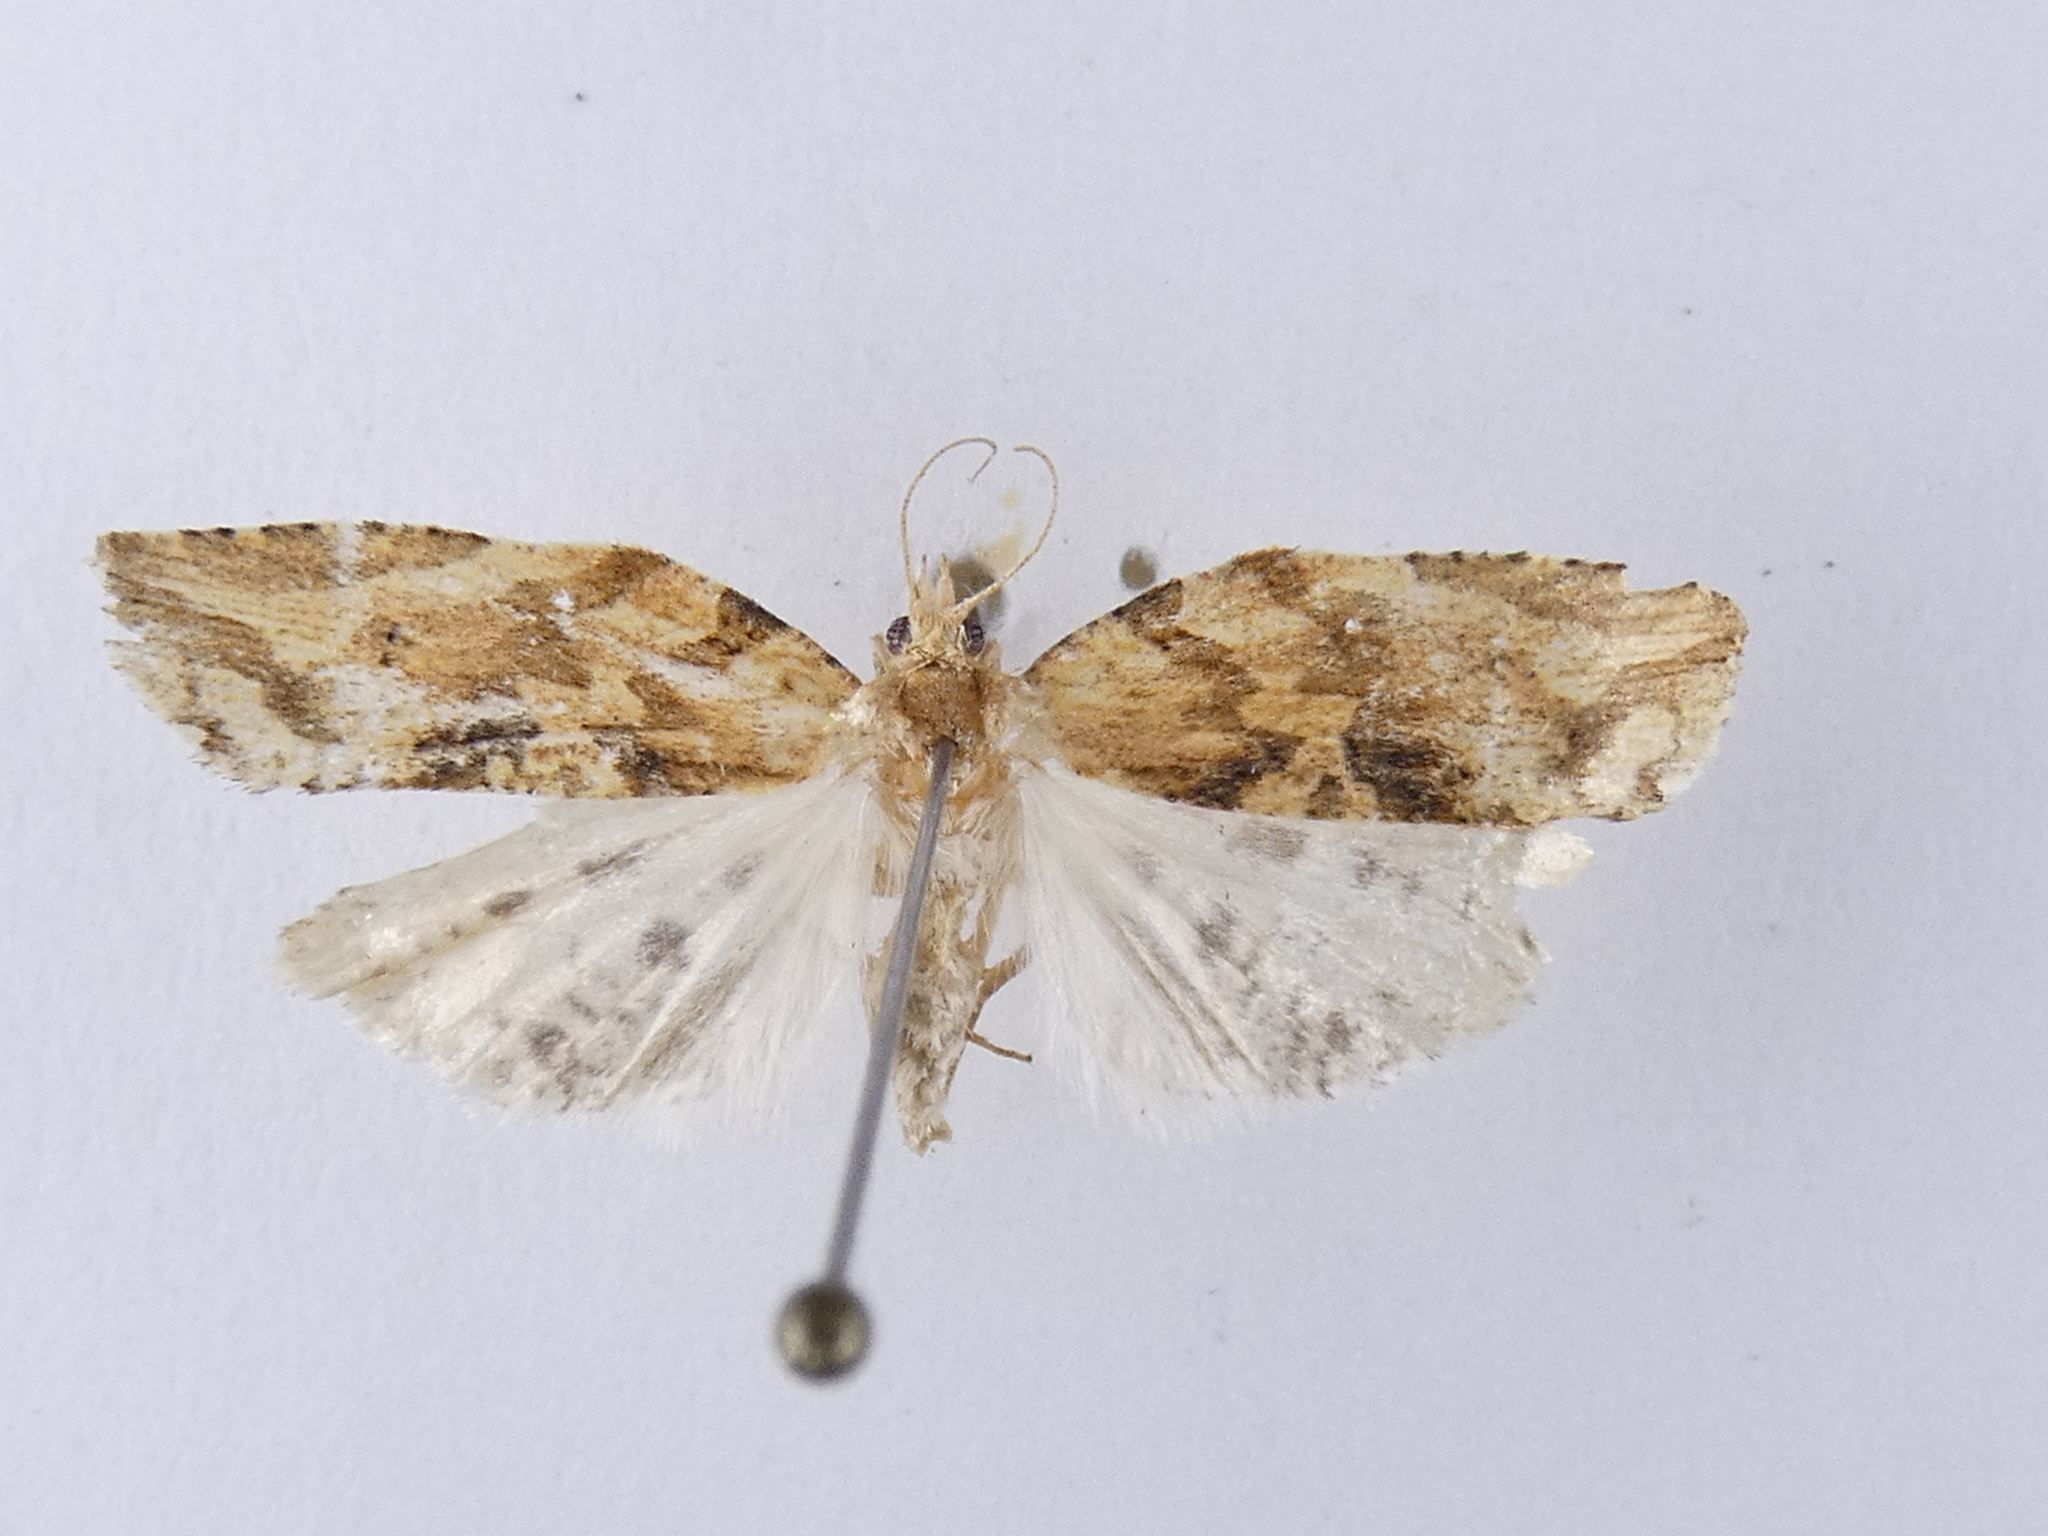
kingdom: Animalia
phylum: Arthropoda
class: Insecta
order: Lepidoptera
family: Tortricidae
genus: Epalxiphora
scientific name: Epalxiphora axenana
